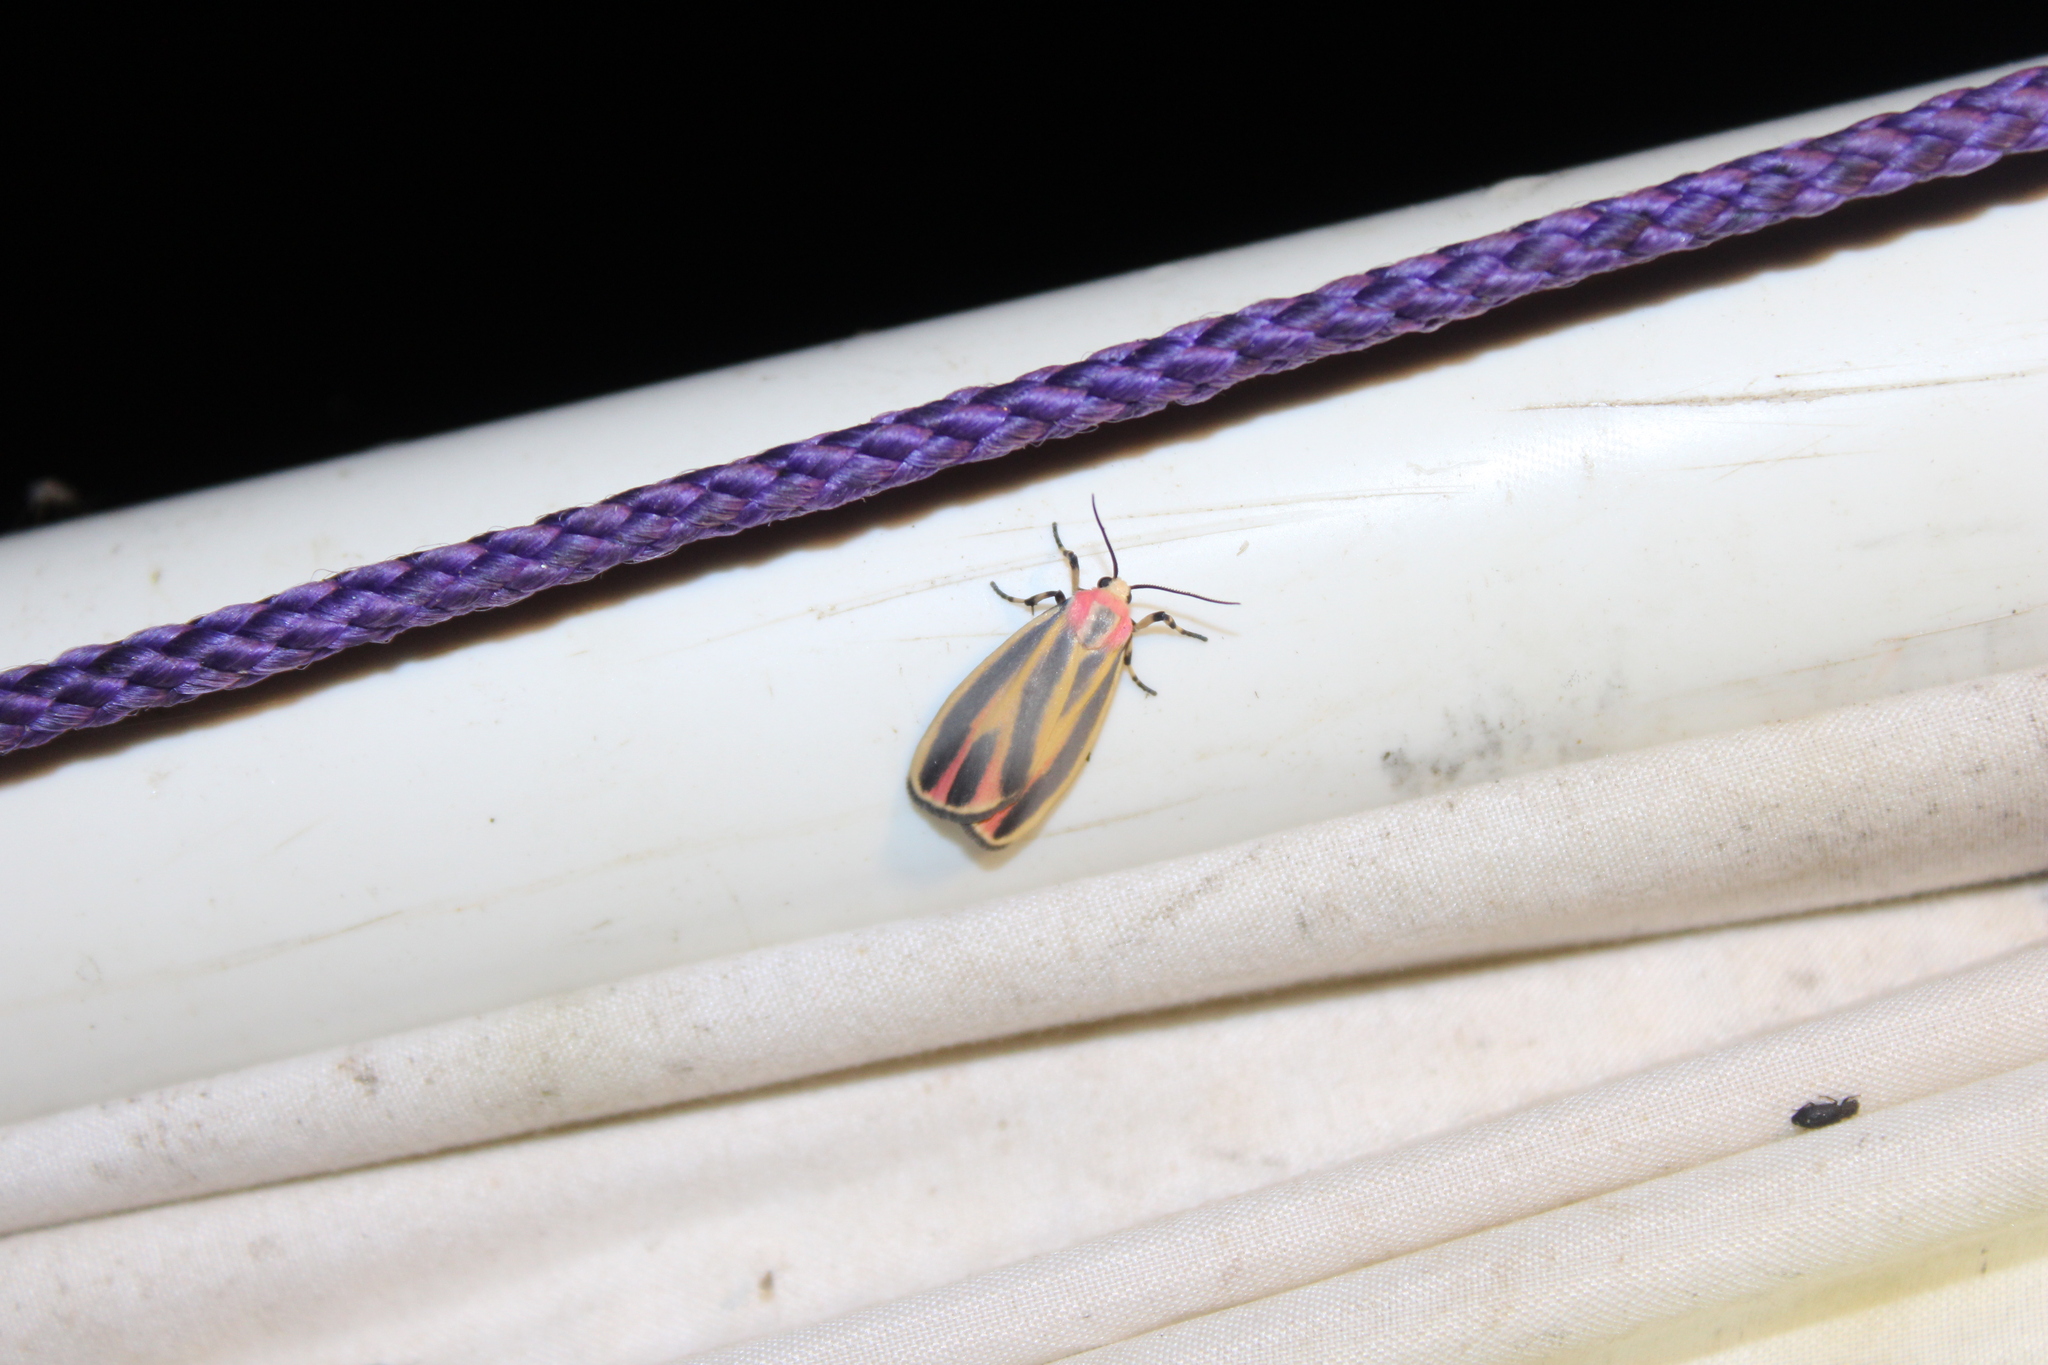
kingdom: Animalia
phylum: Arthropoda
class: Insecta
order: Lepidoptera
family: Erebidae
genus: Hypoprepia
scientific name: Hypoprepia fucosa
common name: Painted lichen moth
